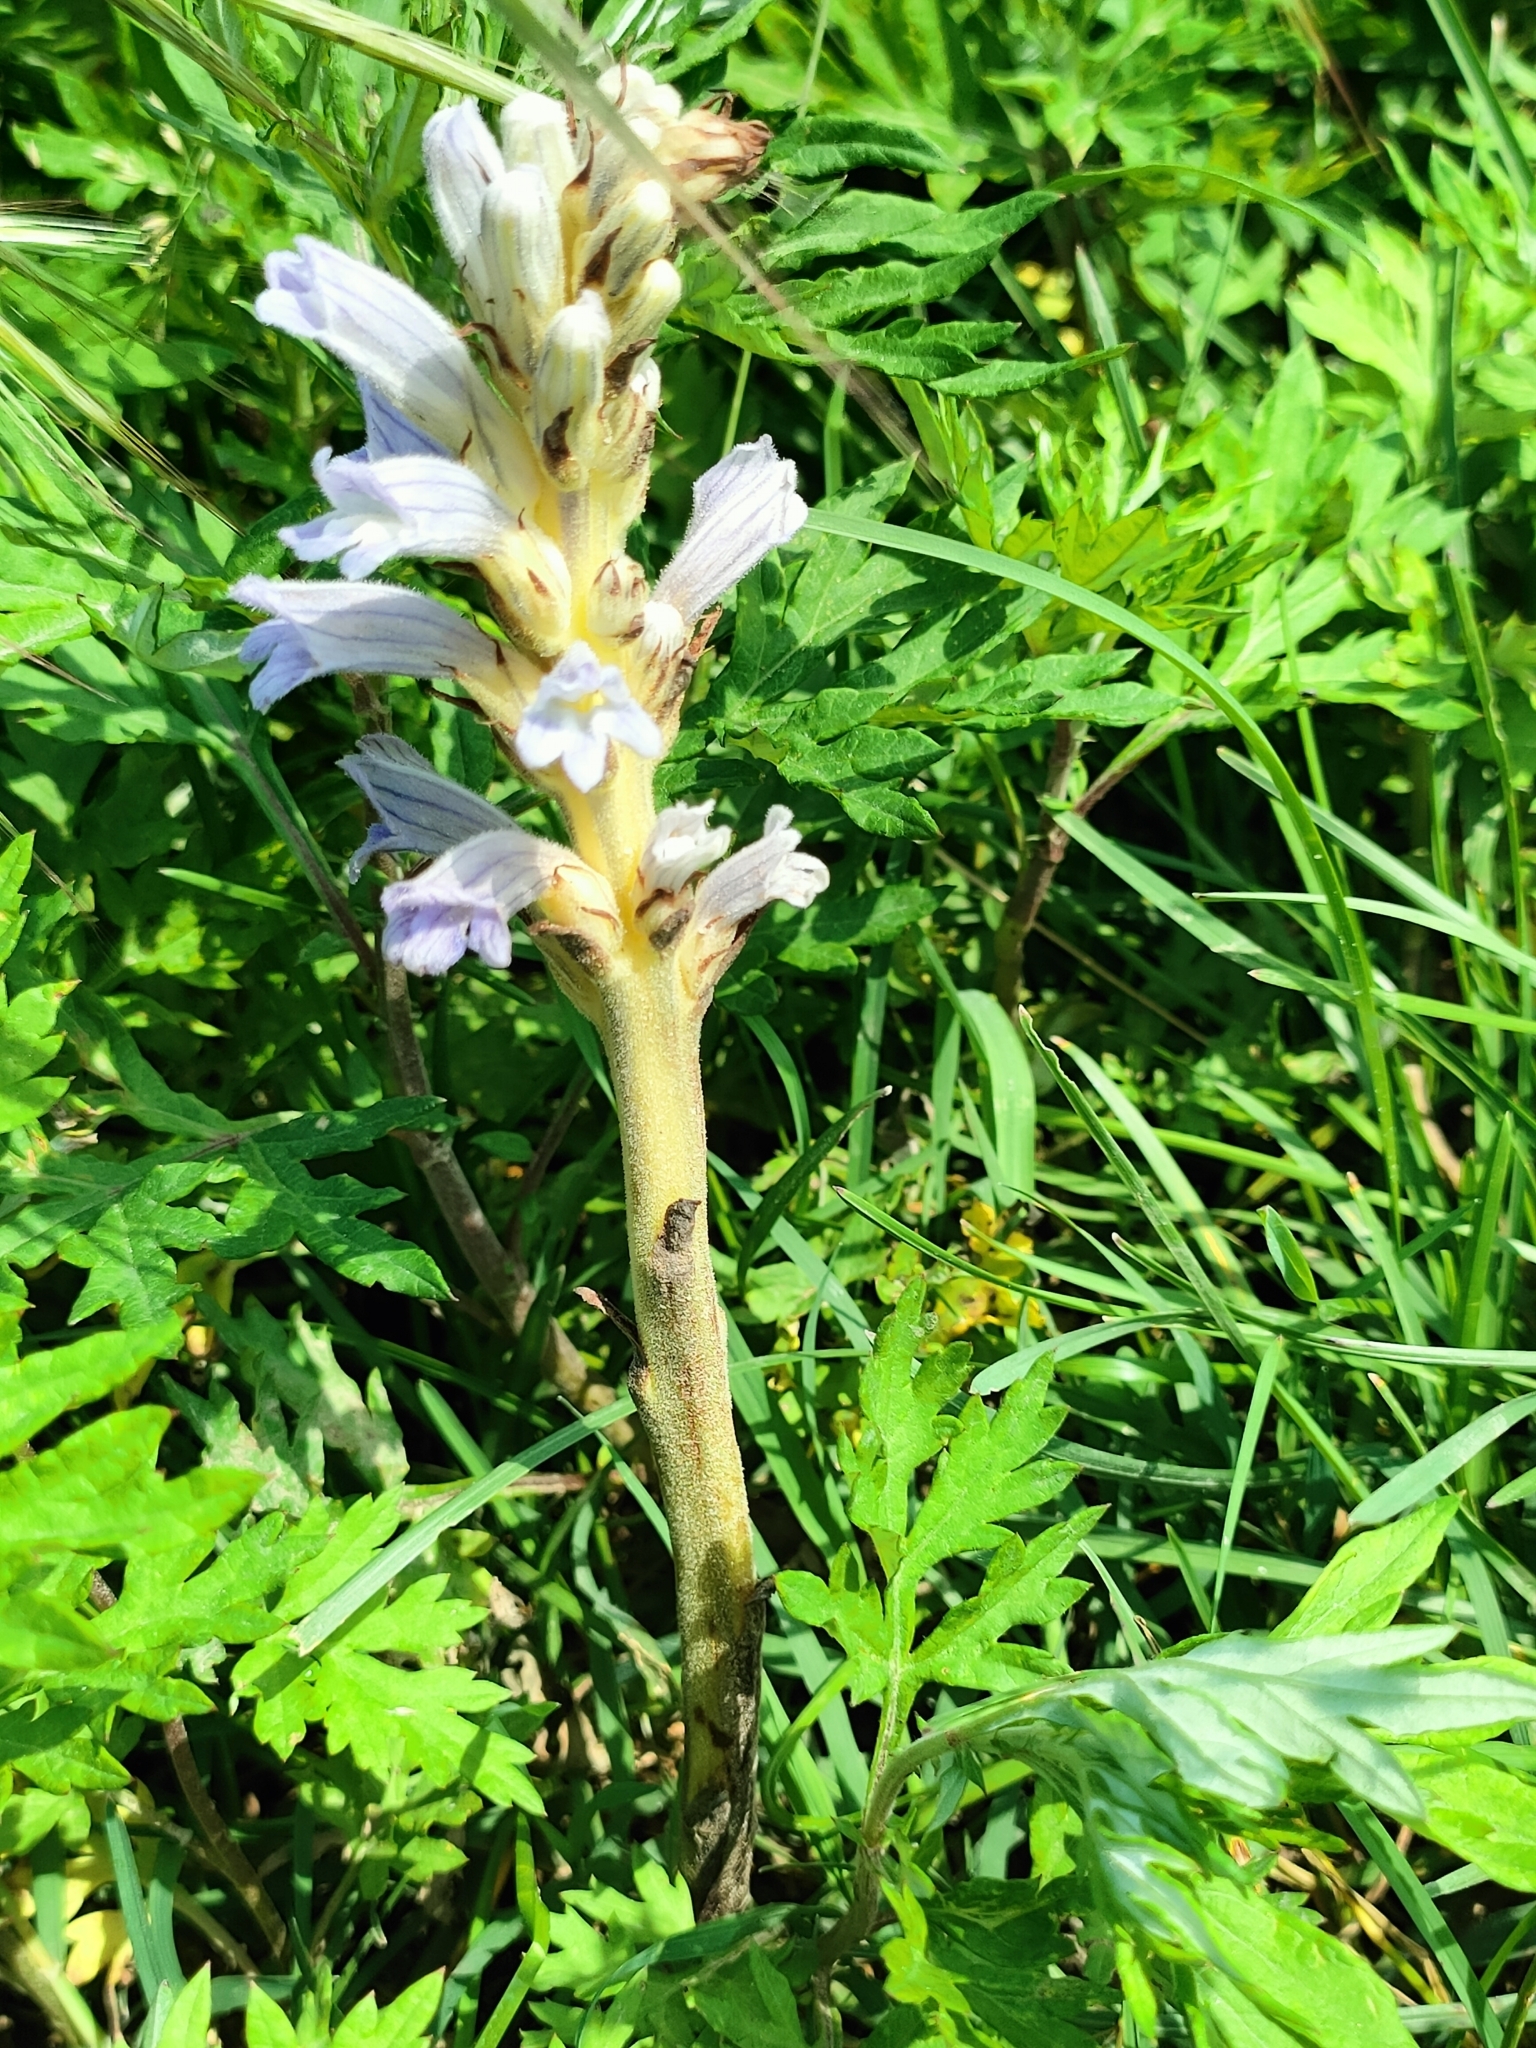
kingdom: Plantae
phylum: Tracheophyta
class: Magnoliopsida
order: Lamiales
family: Orobanchaceae
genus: Phelipanche
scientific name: Phelipanche purpurea
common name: Purple broomrape
